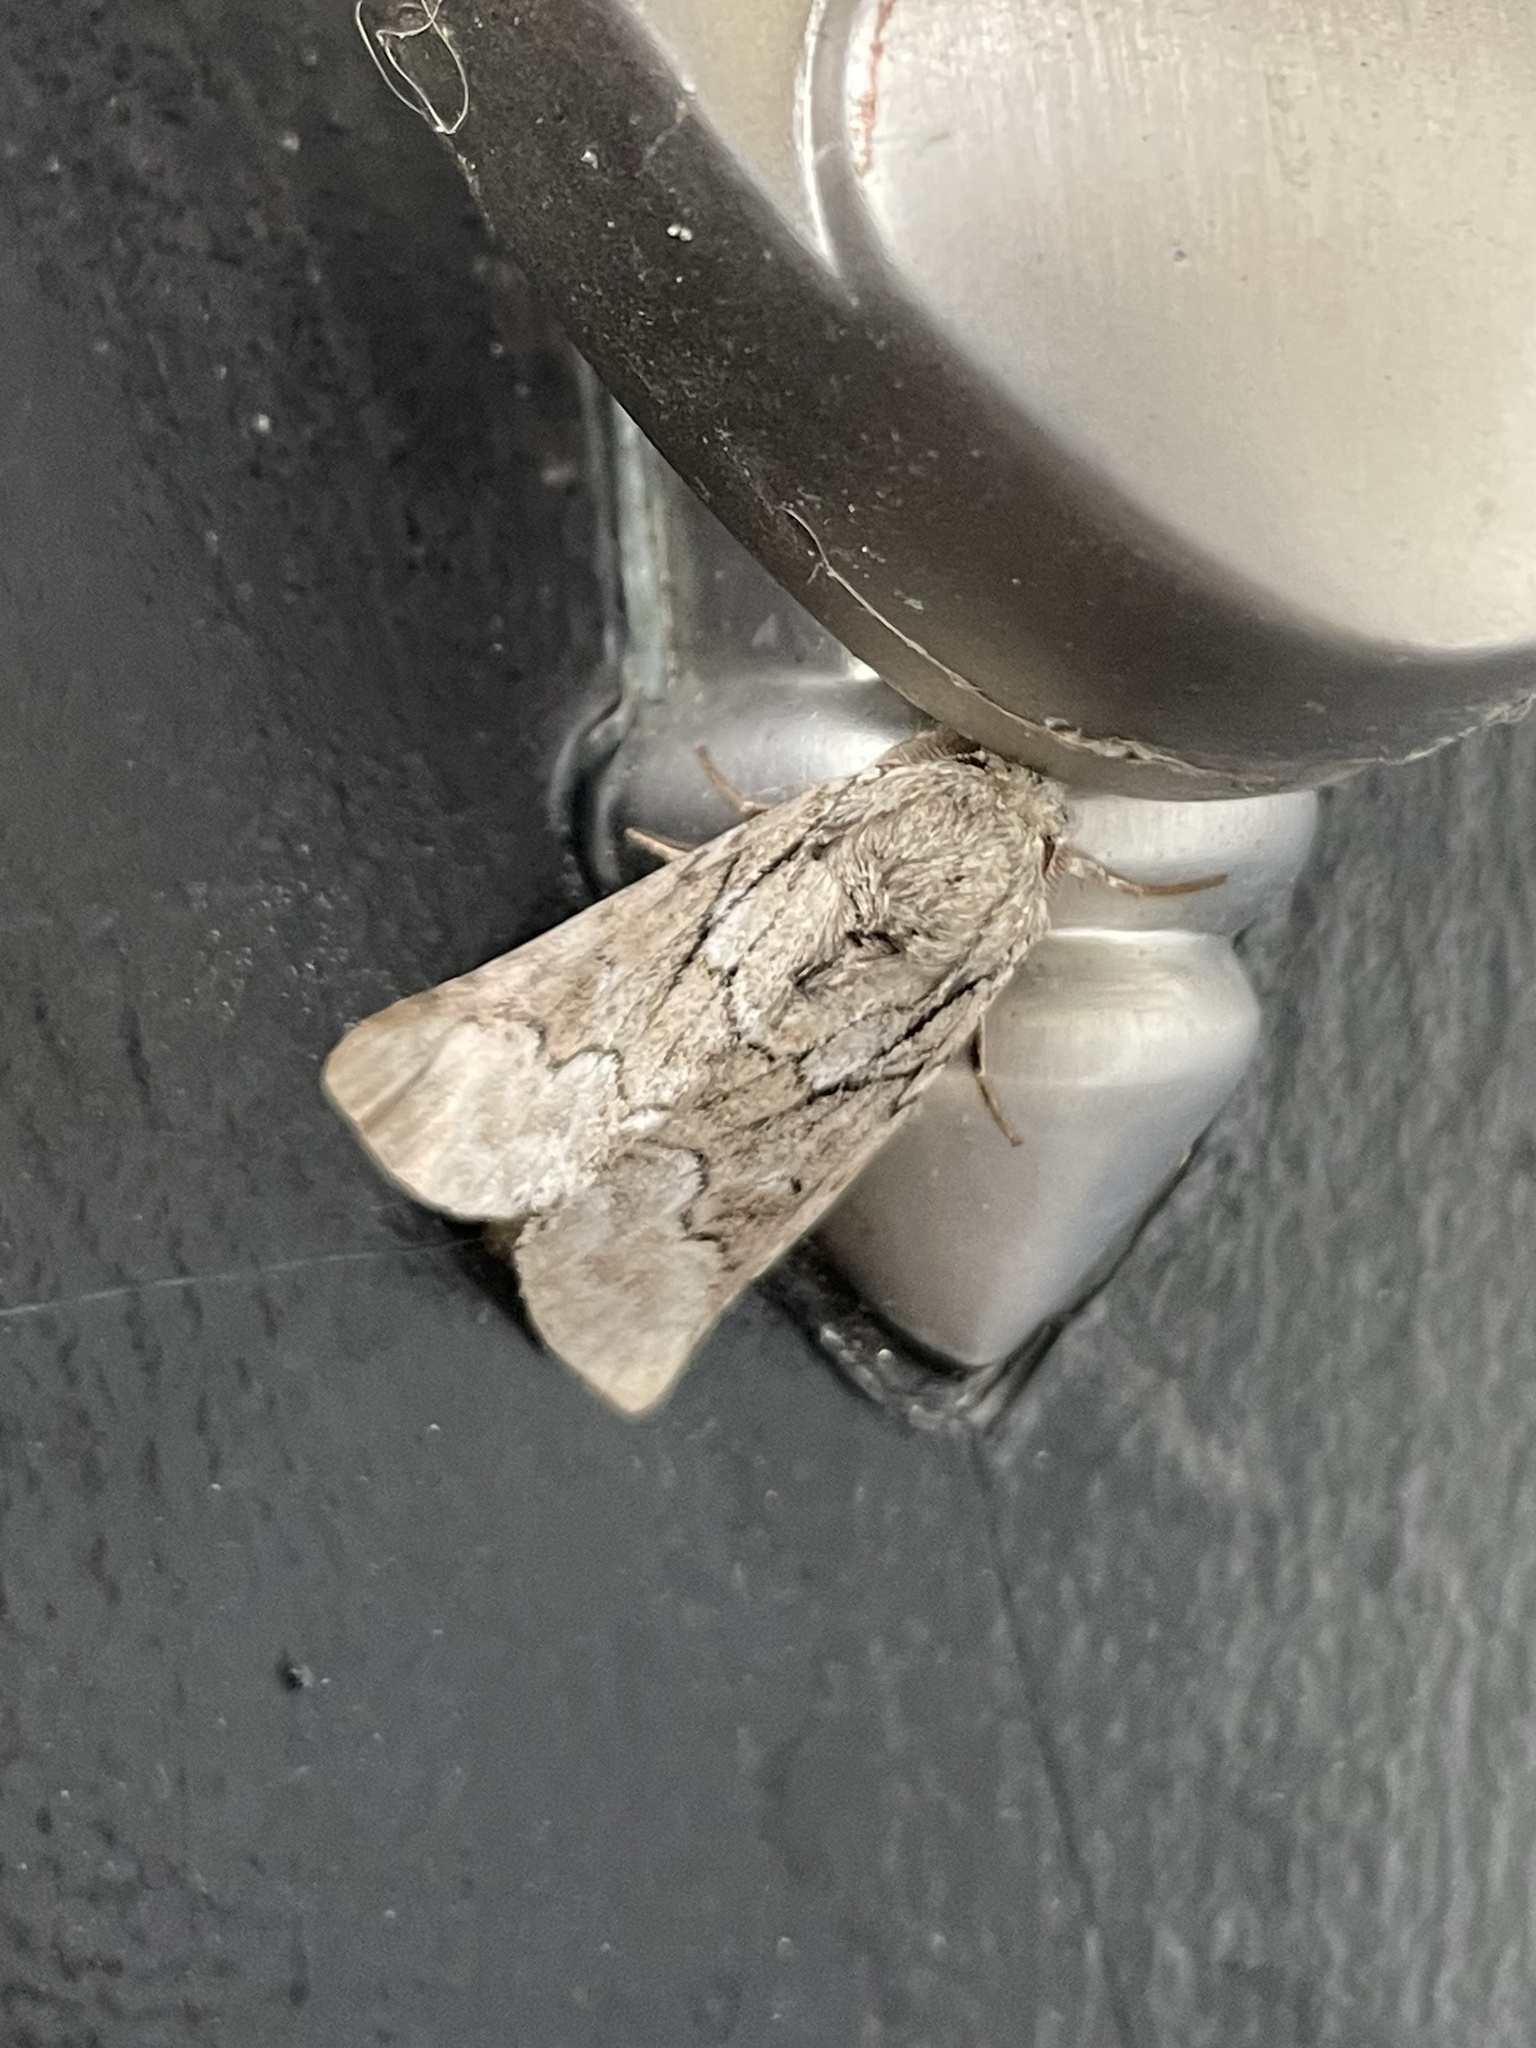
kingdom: Animalia
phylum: Arthropoda
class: Insecta
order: Lepidoptera
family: Notodontidae
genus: Lochmaeus
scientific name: Lochmaeus bilineata
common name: Double-lined prominent
